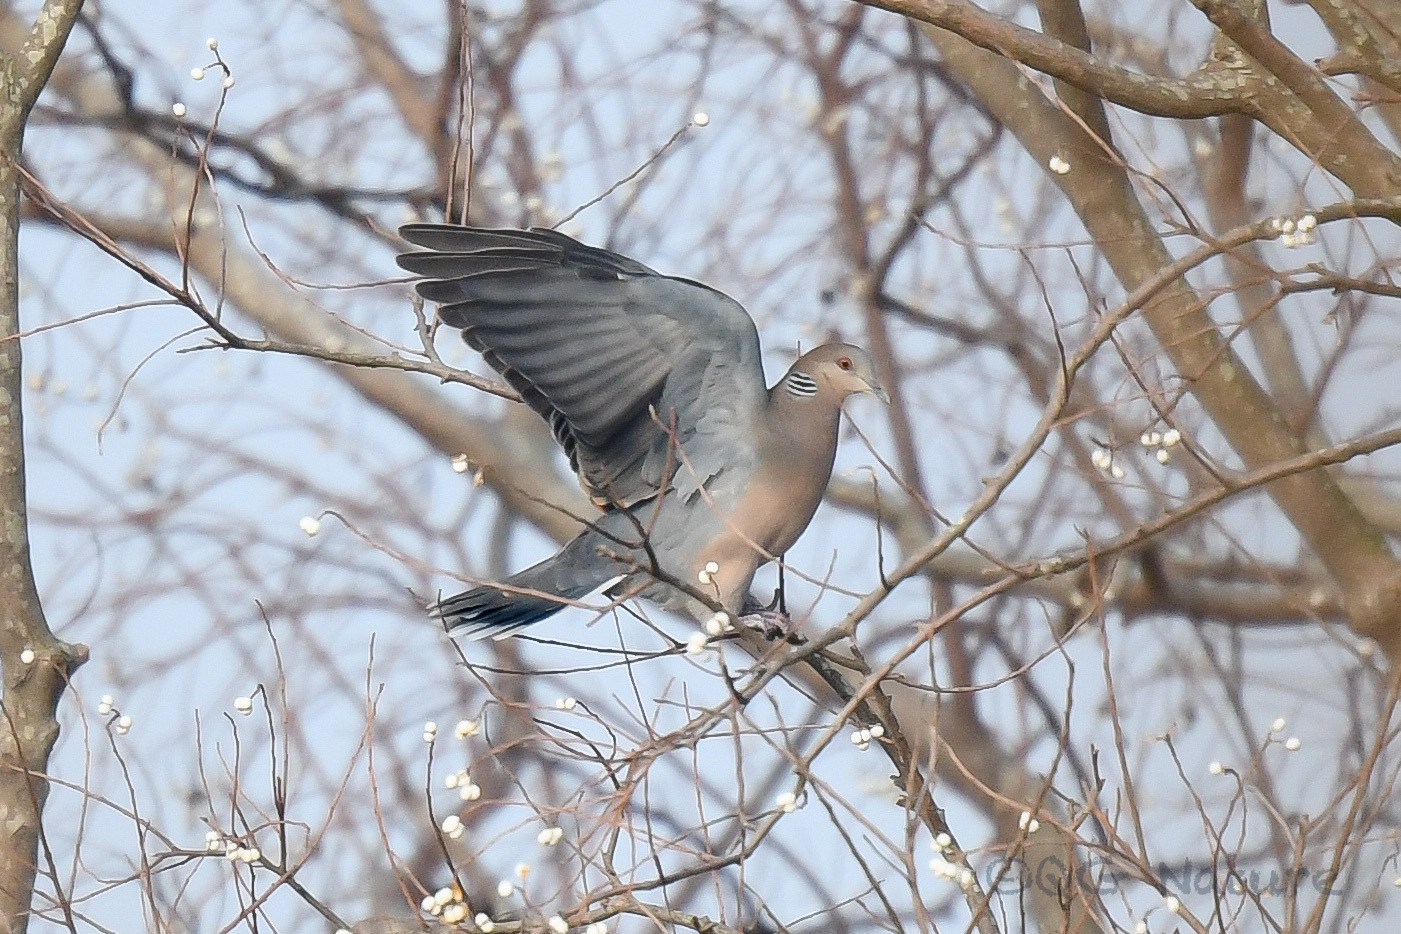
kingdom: Animalia
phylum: Chordata
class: Aves
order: Columbiformes
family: Columbidae
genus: Streptopelia
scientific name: Streptopelia orientalis
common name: Oriental turtle dove
